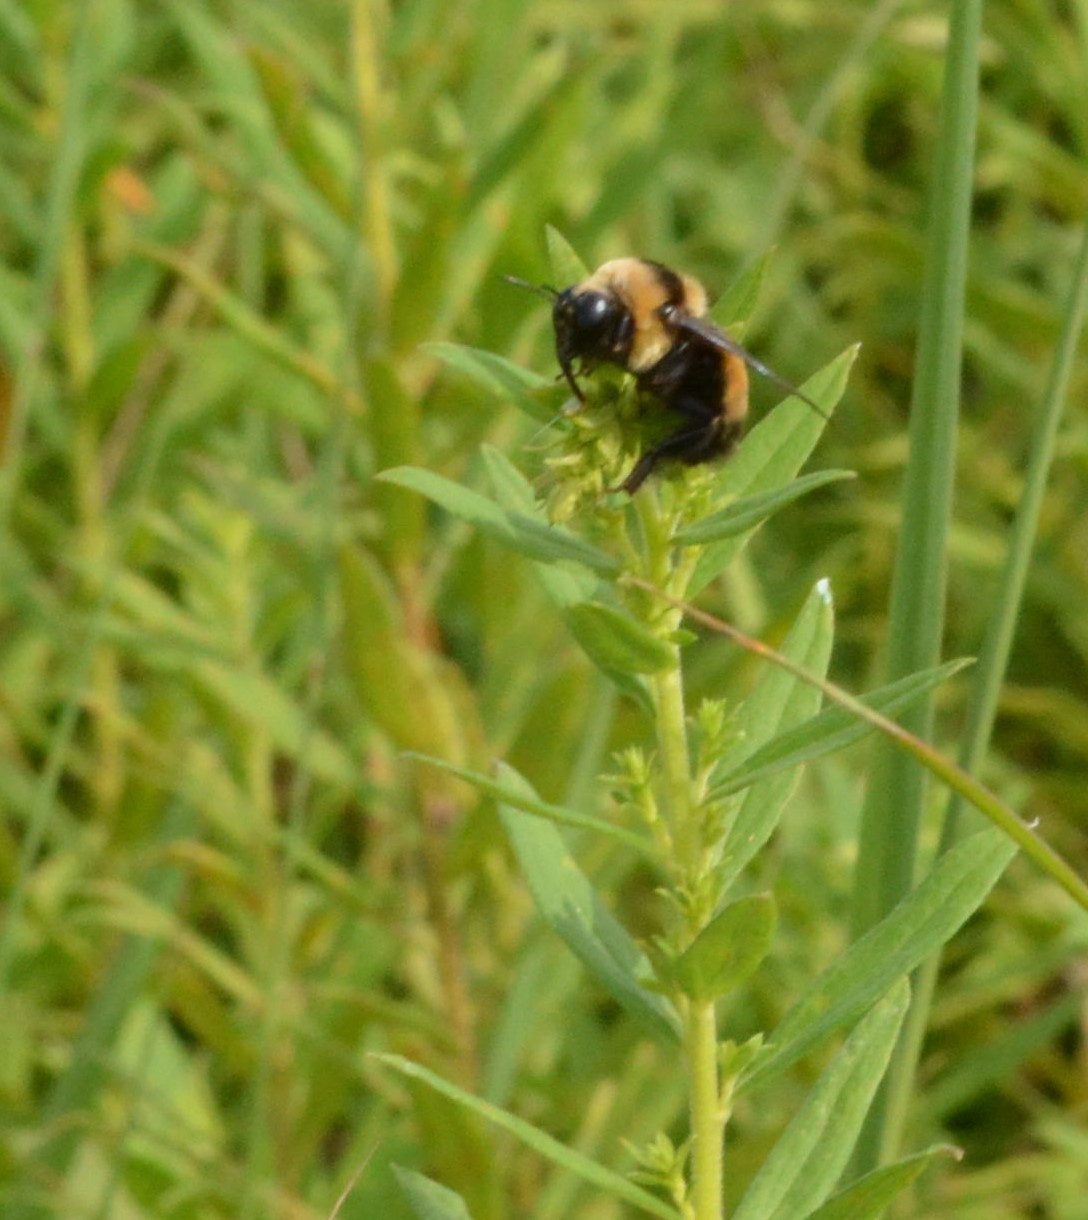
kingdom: Animalia
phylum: Arthropoda
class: Insecta
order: Hymenoptera
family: Apidae
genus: Bombus
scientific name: Bombus auricomus
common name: Black and gold bumble bee
